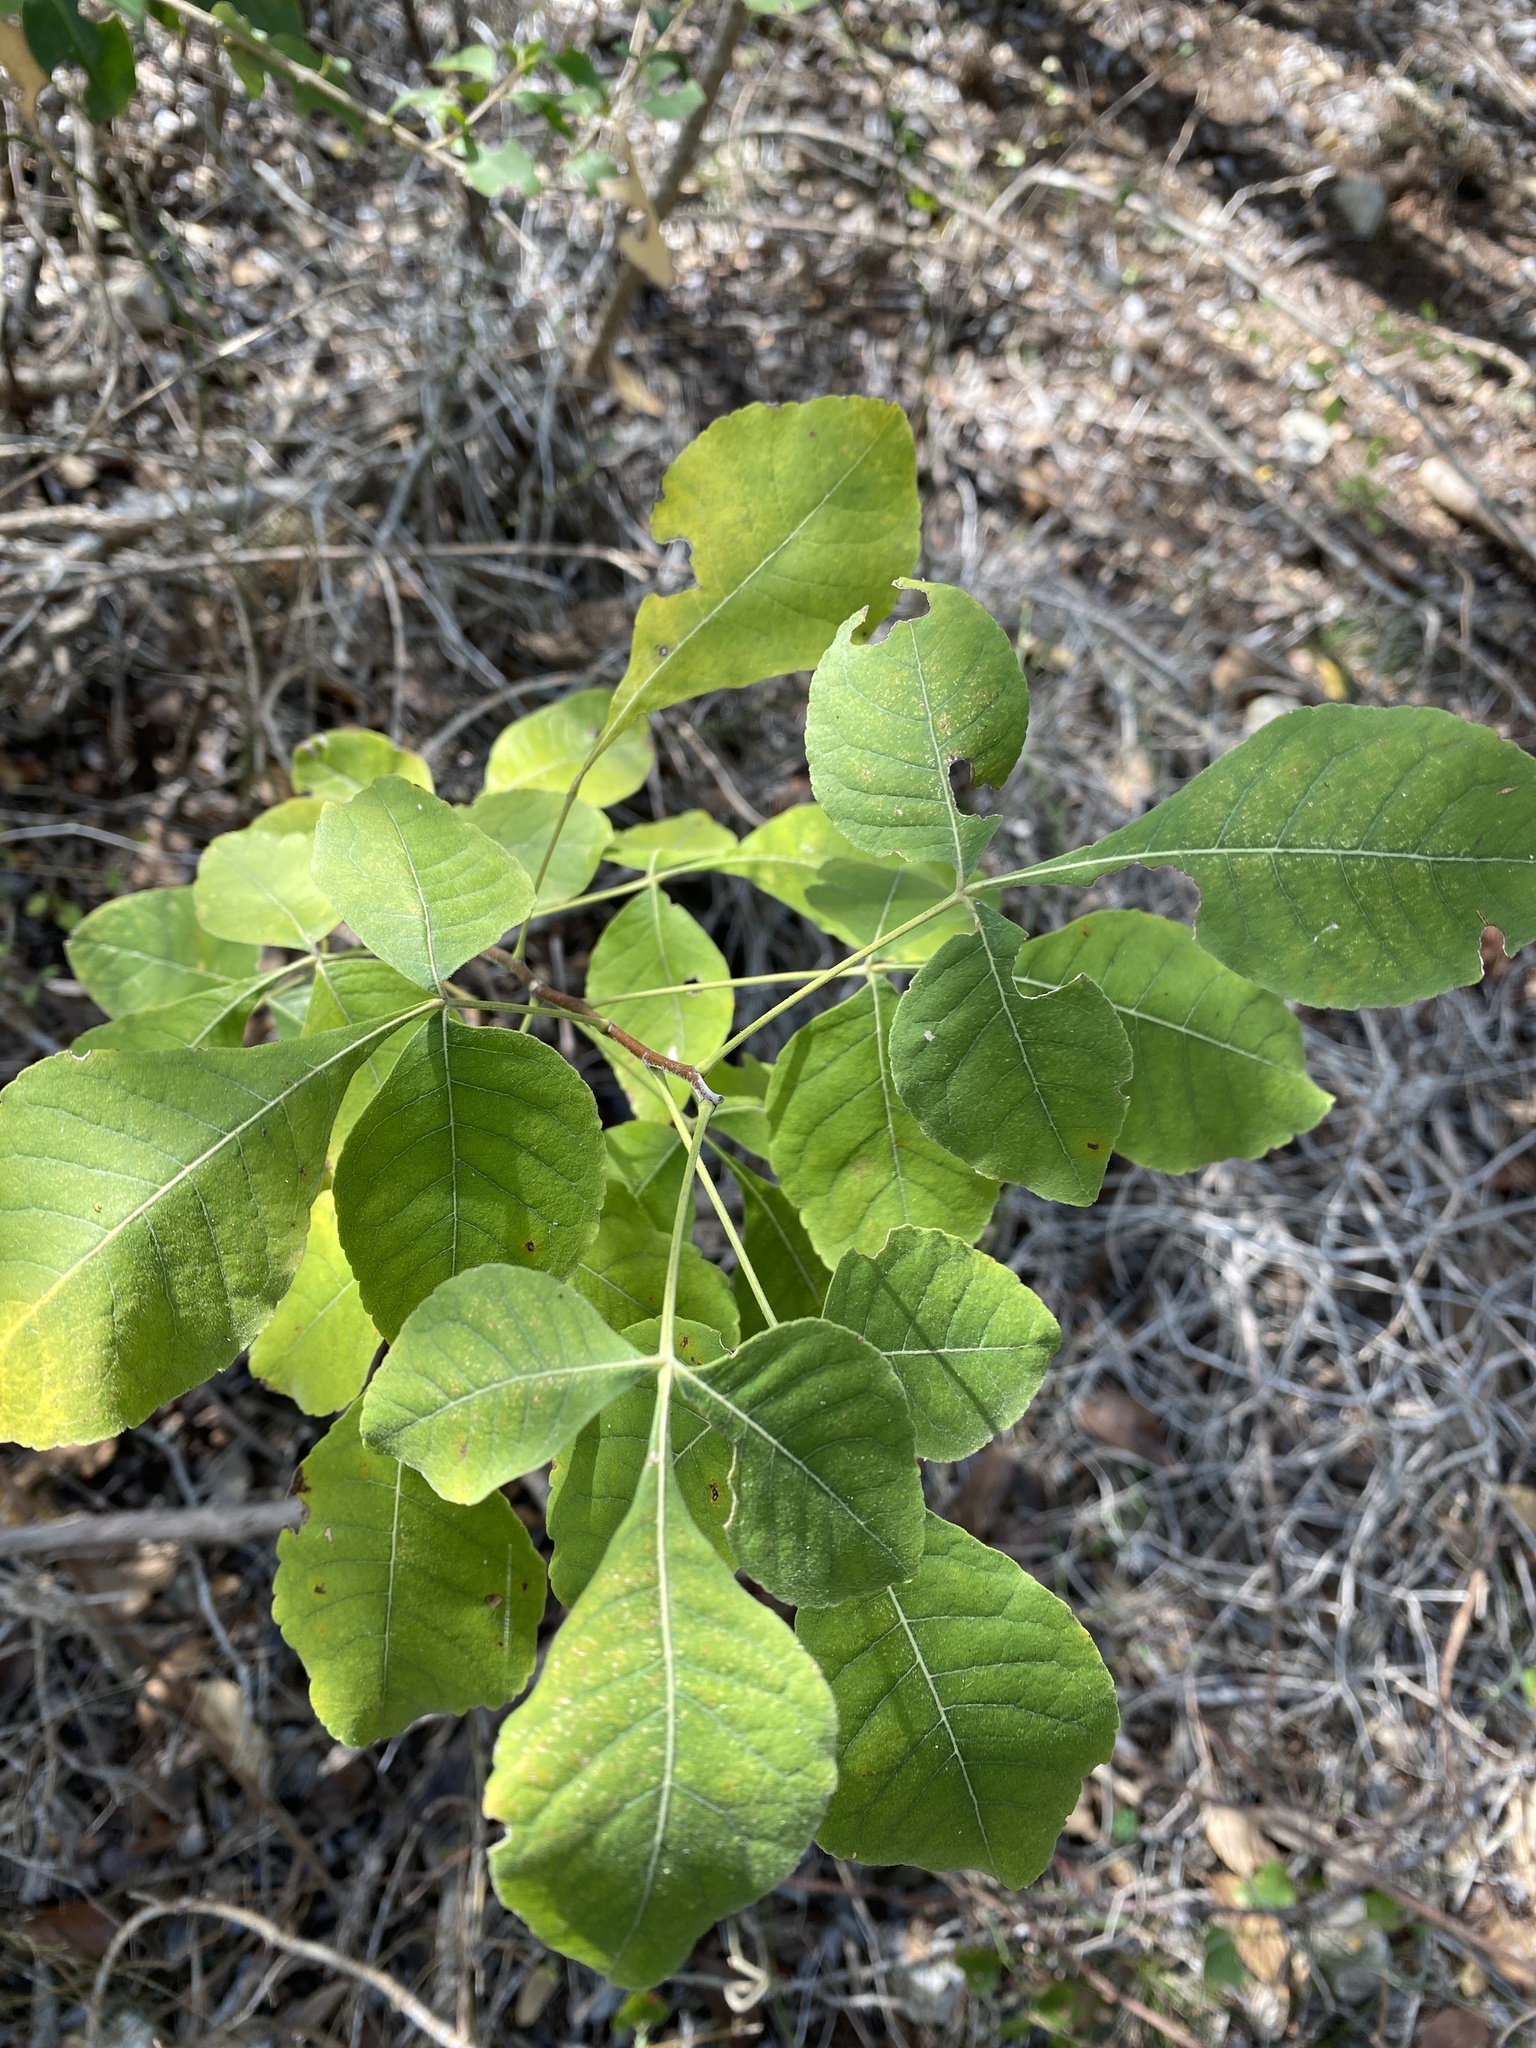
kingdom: Plantae
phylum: Tracheophyta
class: Magnoliopsida
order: Sapindales
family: Rutaceae
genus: Ptelea
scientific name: Ptelea trifoliata
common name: Common hop-tree
